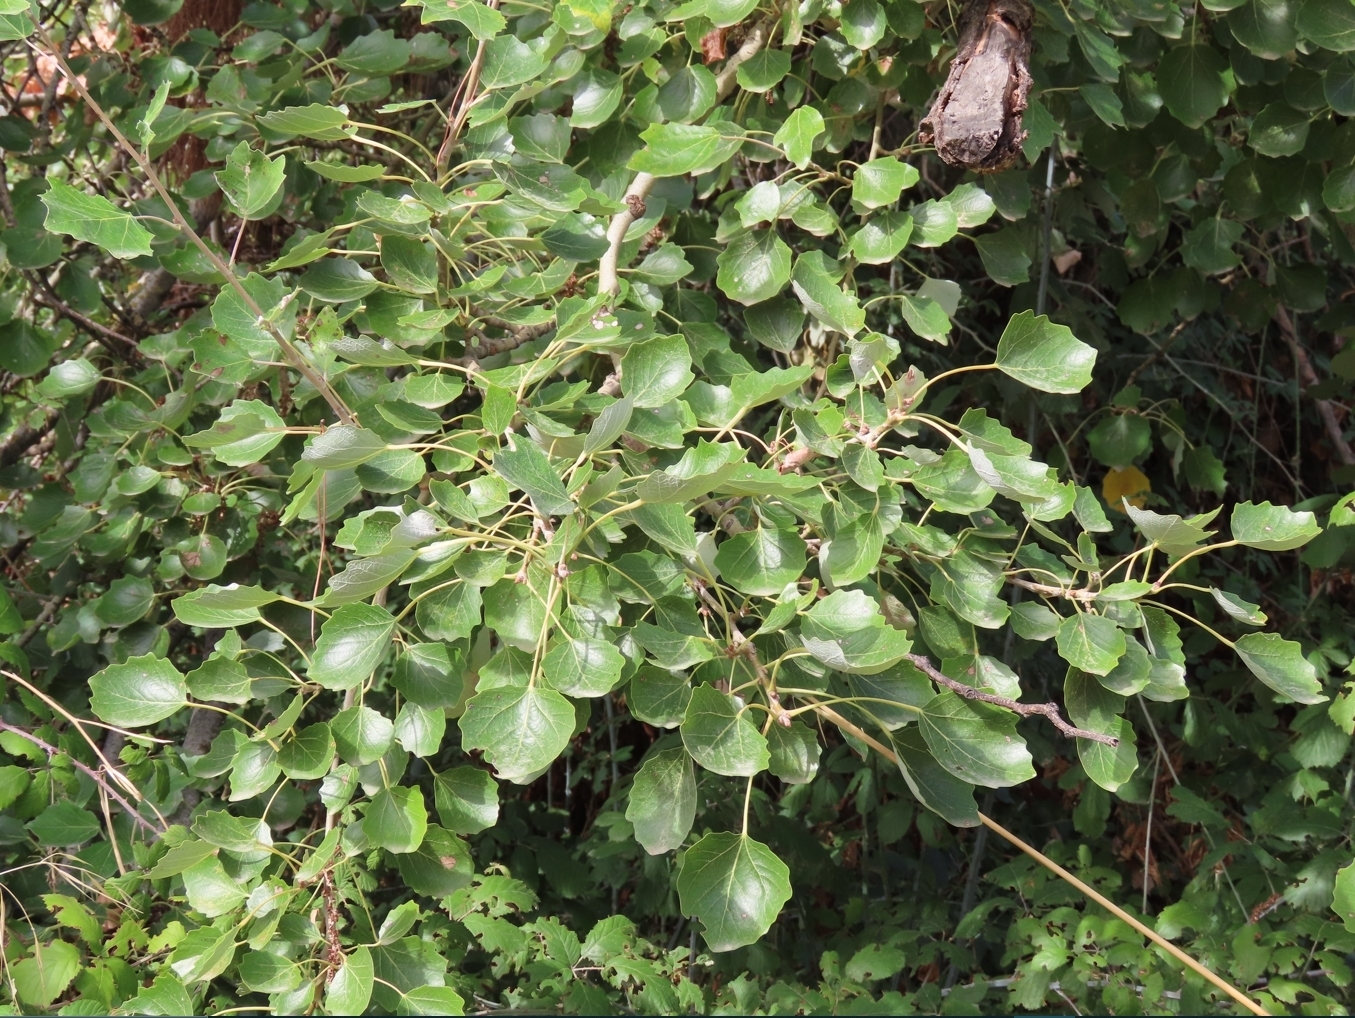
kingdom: Plantae
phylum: Tracheophyta
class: Magnoliopsida
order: Malpighiales
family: Salicaceae
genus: Populus
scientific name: Populus tremula
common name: European aspen
